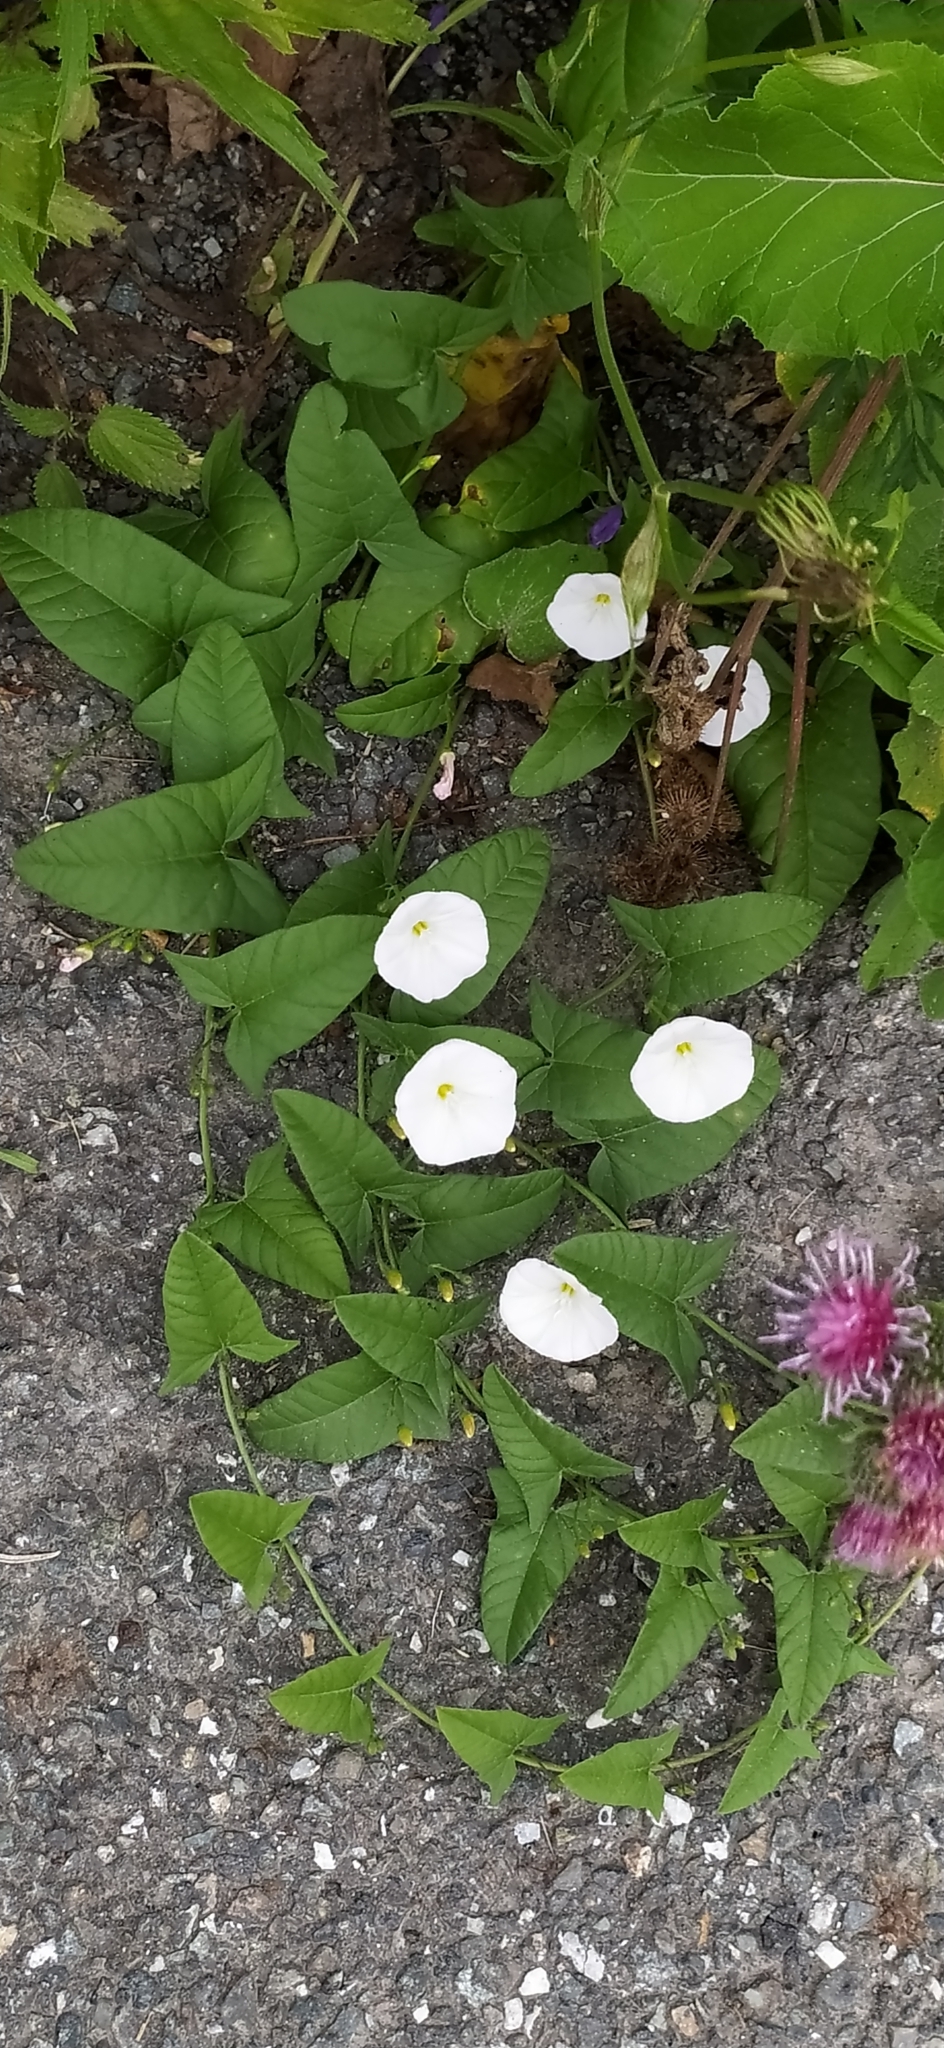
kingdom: Plantae
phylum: Tracheophyta
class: Magnoliopsida
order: Solanales
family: Convolvulaceae
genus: Convolvulus
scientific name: Convolvulus arvensis
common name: Field bindweed
